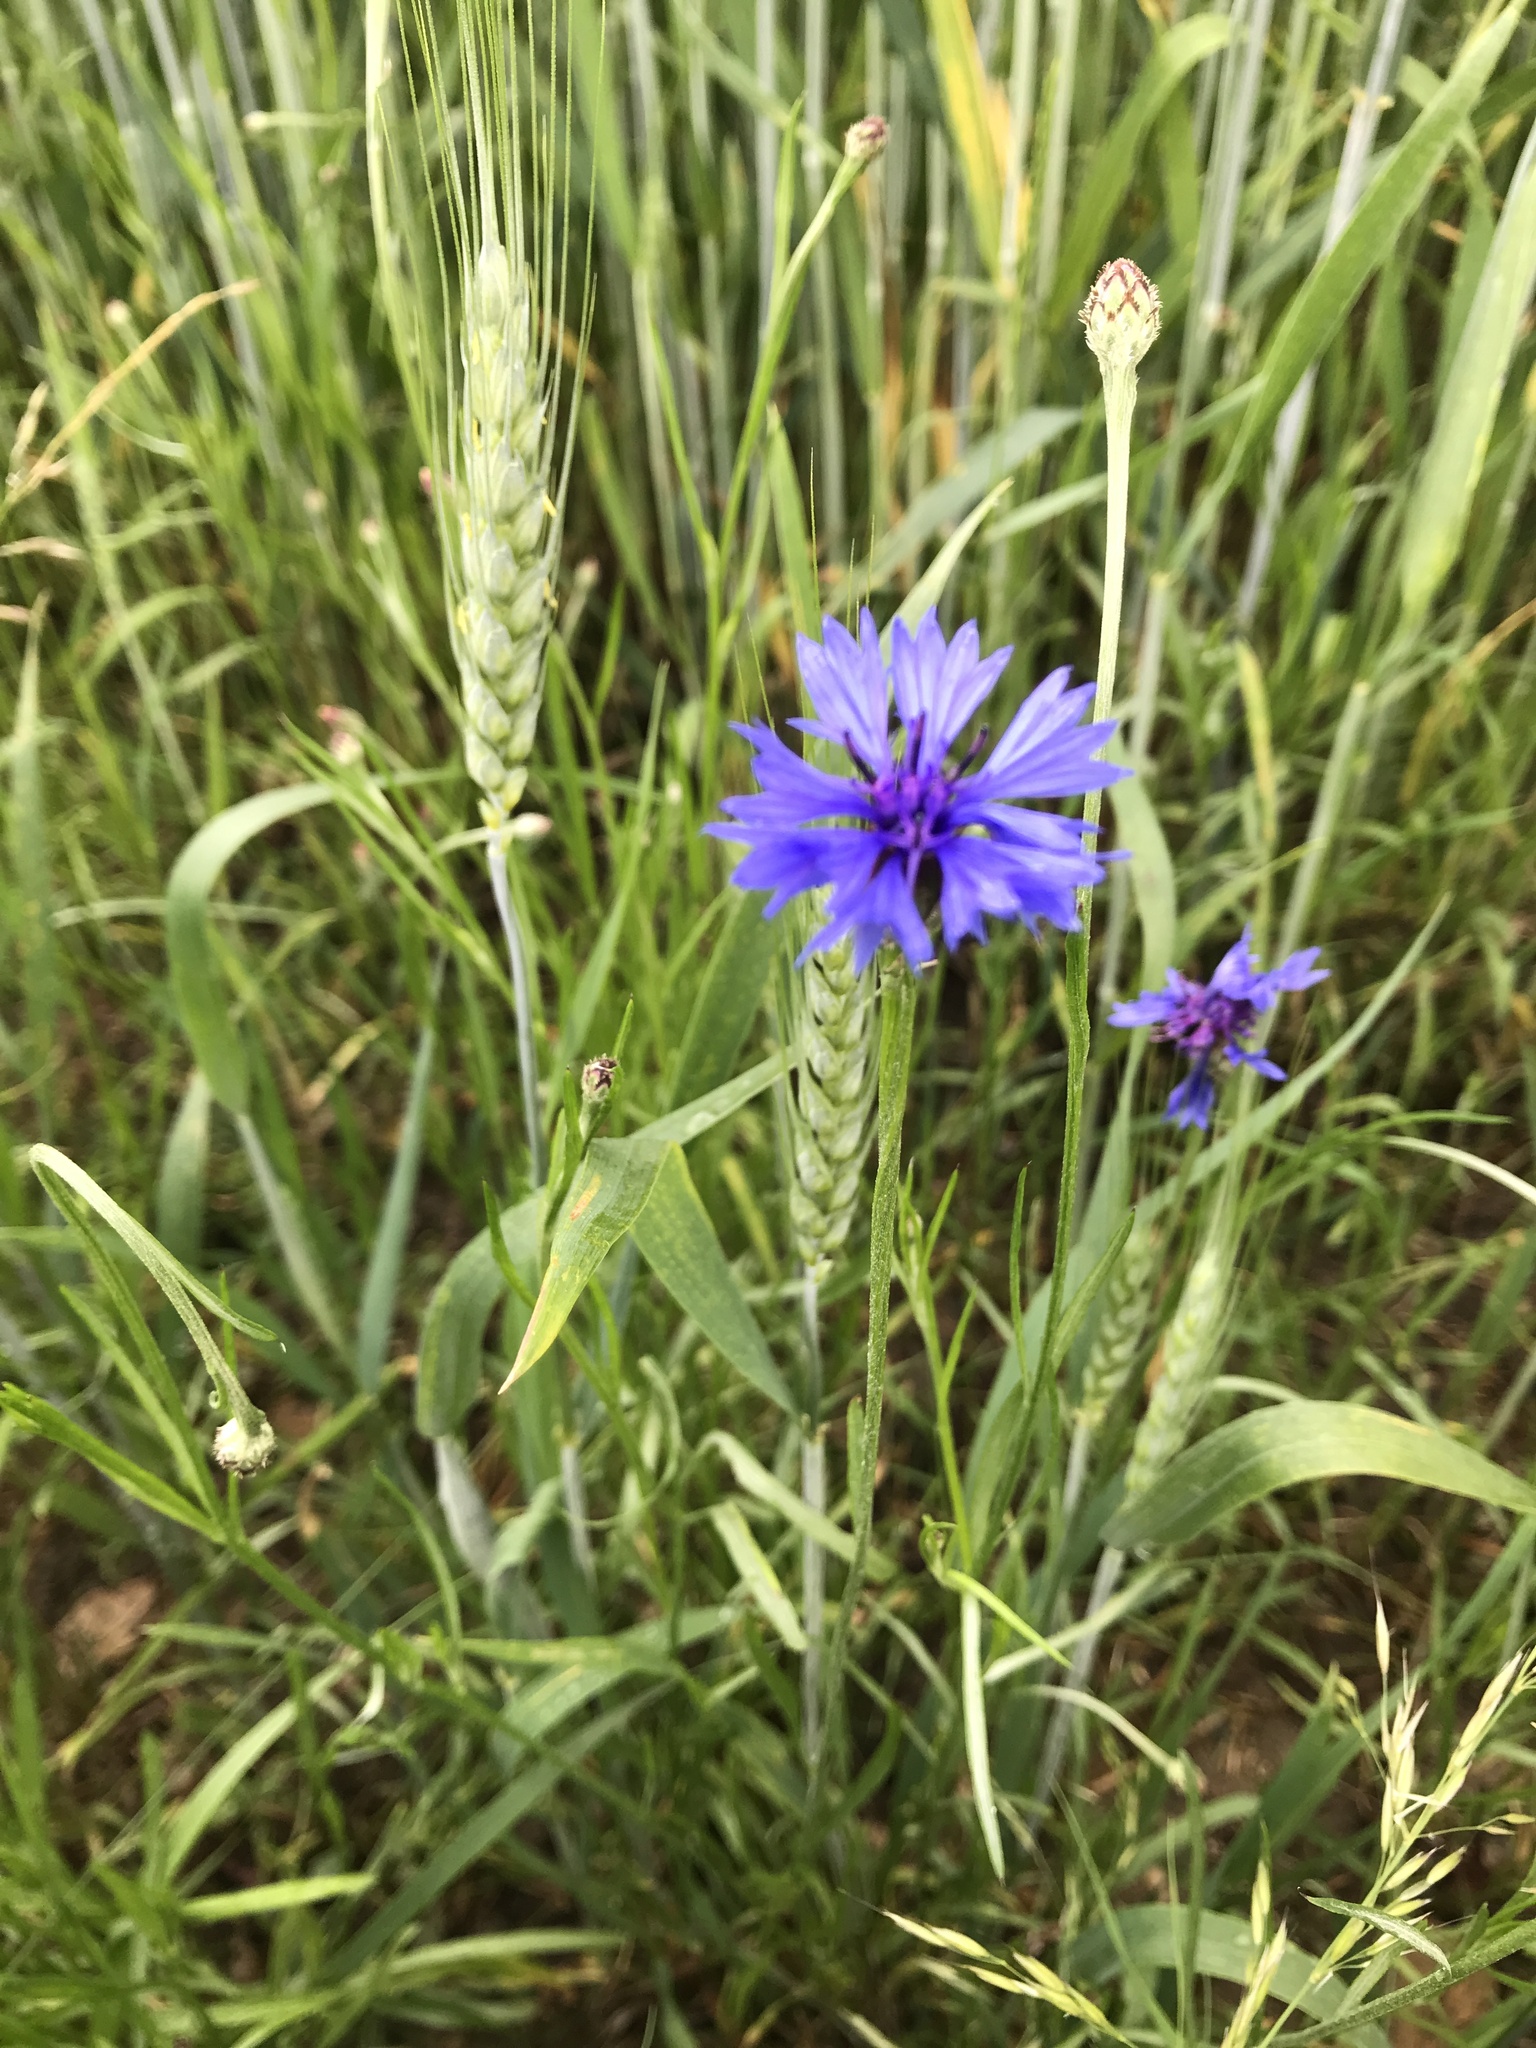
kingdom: Plantae
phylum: Tracheophyta
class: Magnoliopsida
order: Asterales
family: Asteraceae
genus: Centaurea
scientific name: Centaurea cyanus
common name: Cornflower
